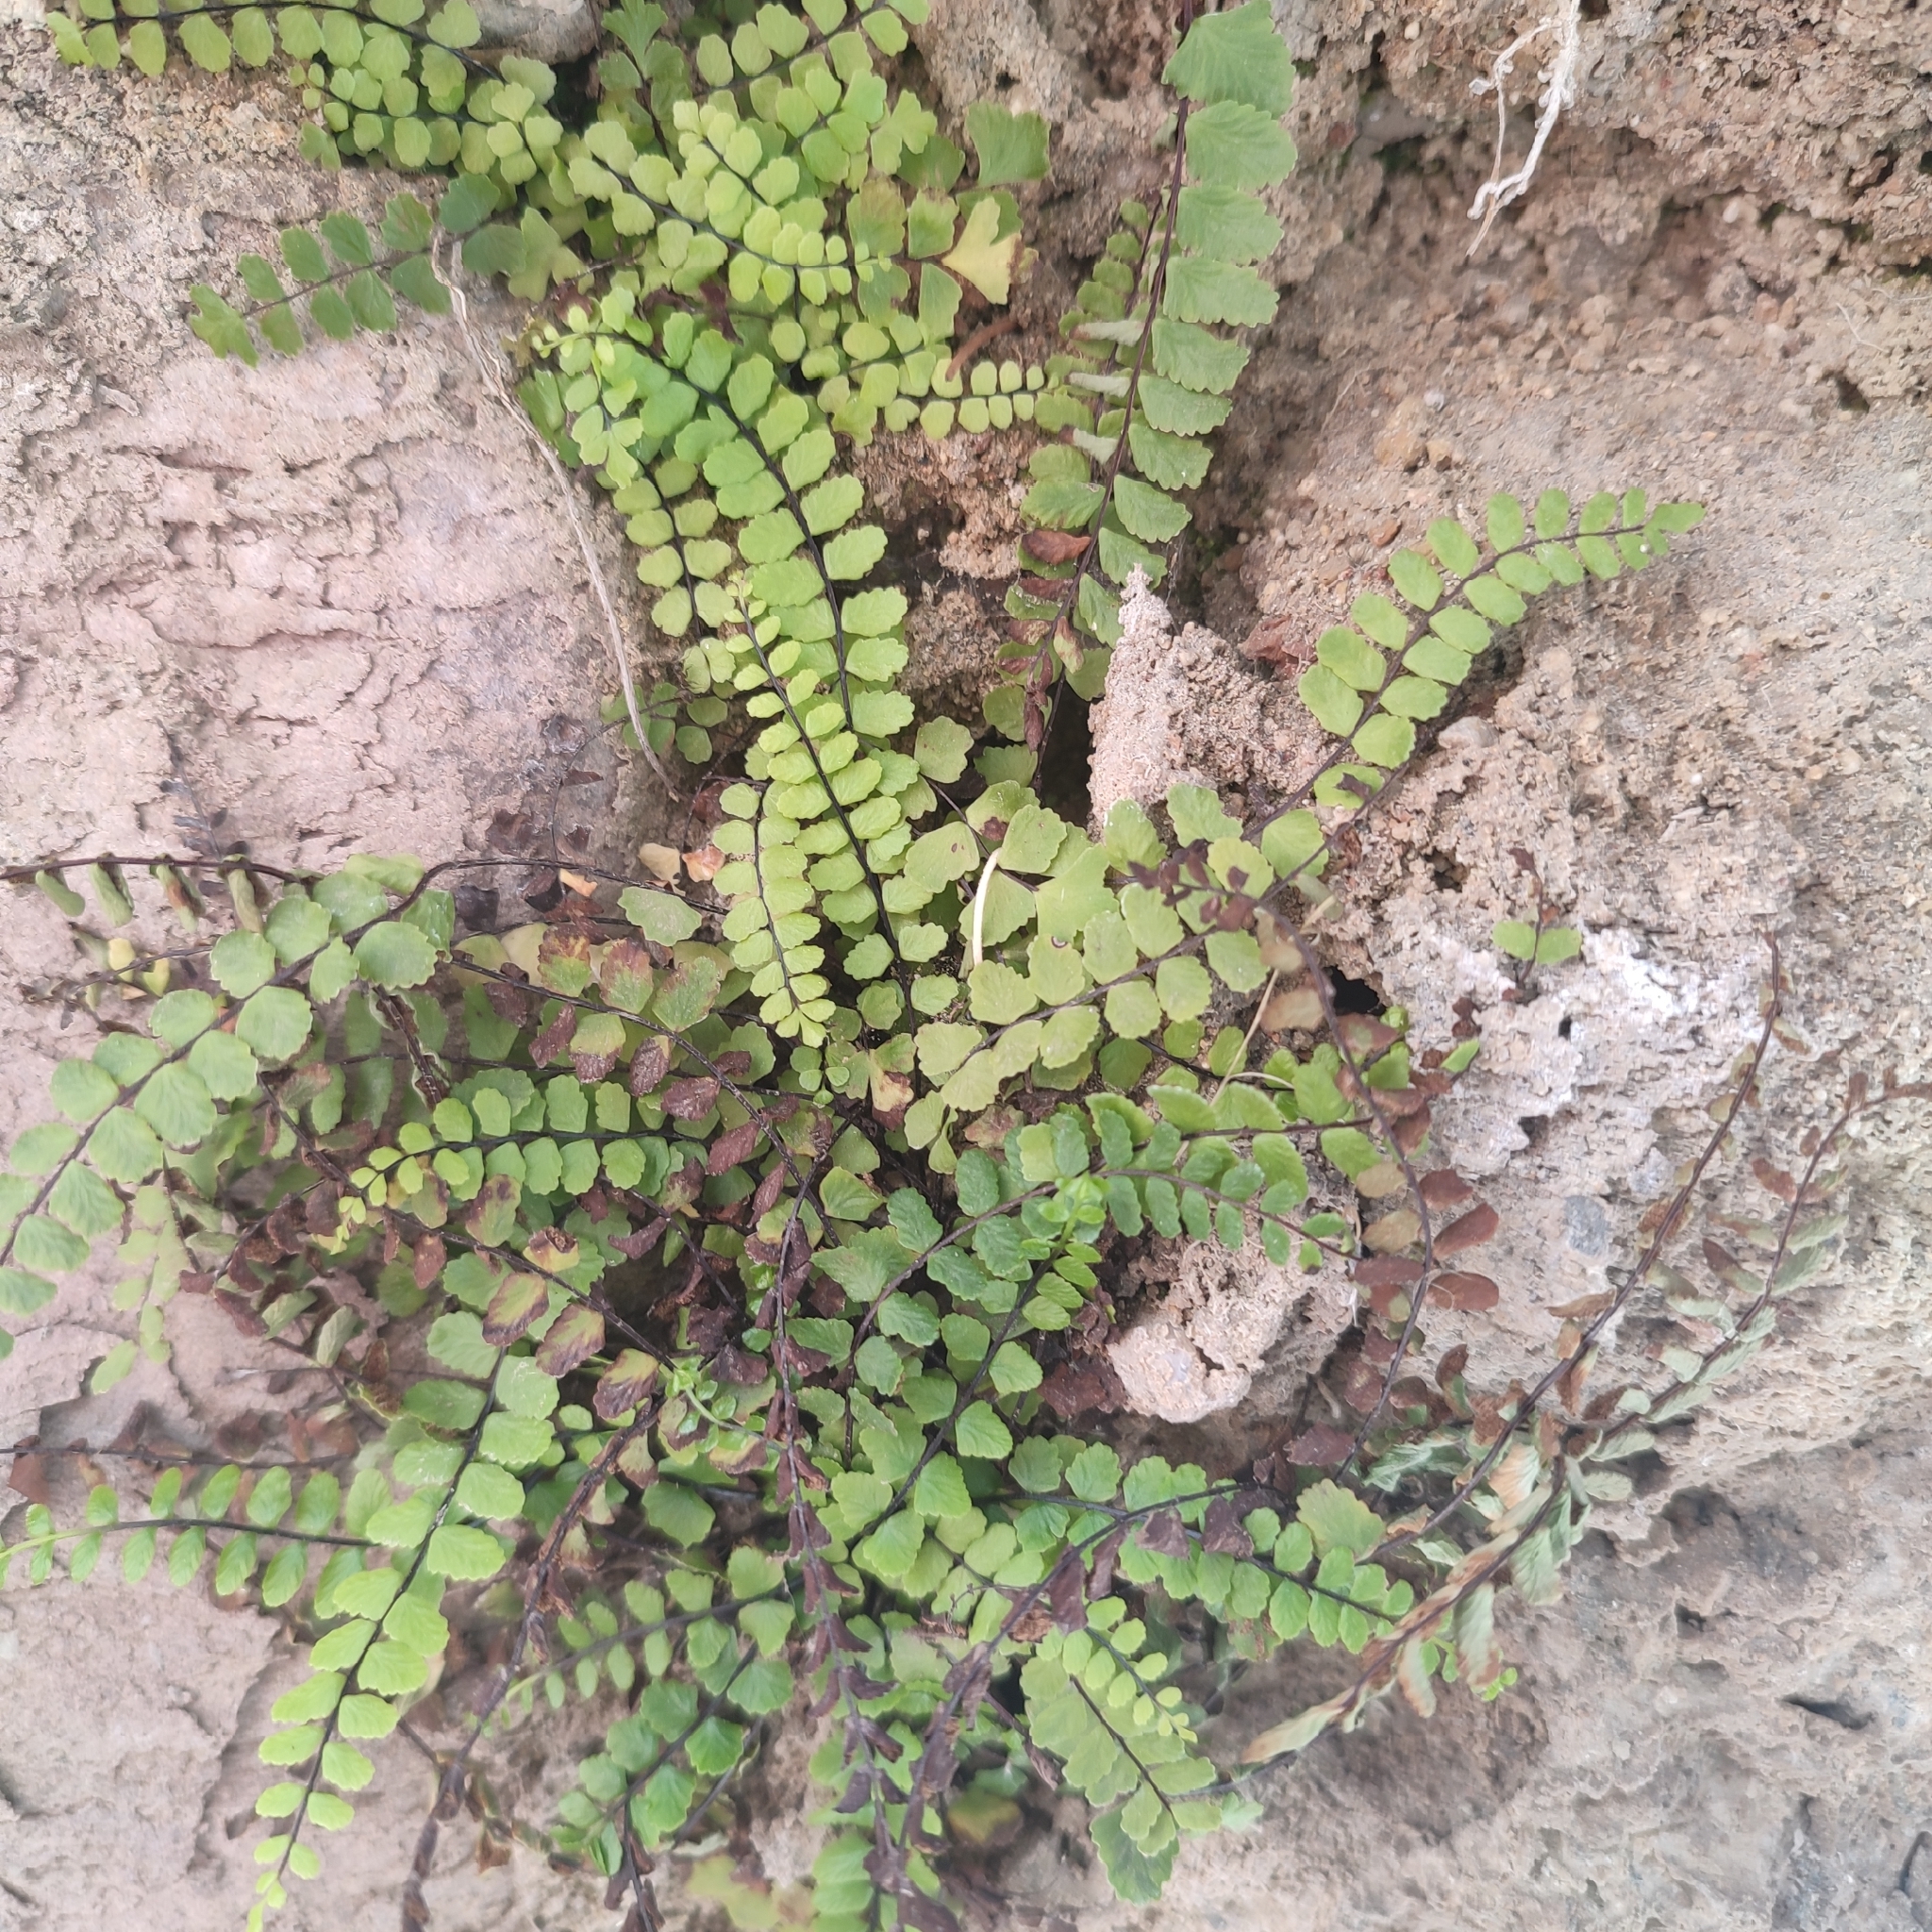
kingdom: Plantae
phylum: Tracheophyta
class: Polypodiopsida
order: Polypodiales
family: Aspleniaceae
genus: Asplenium
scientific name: Asplenium trichomanes
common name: Maidenhair spleenwort
